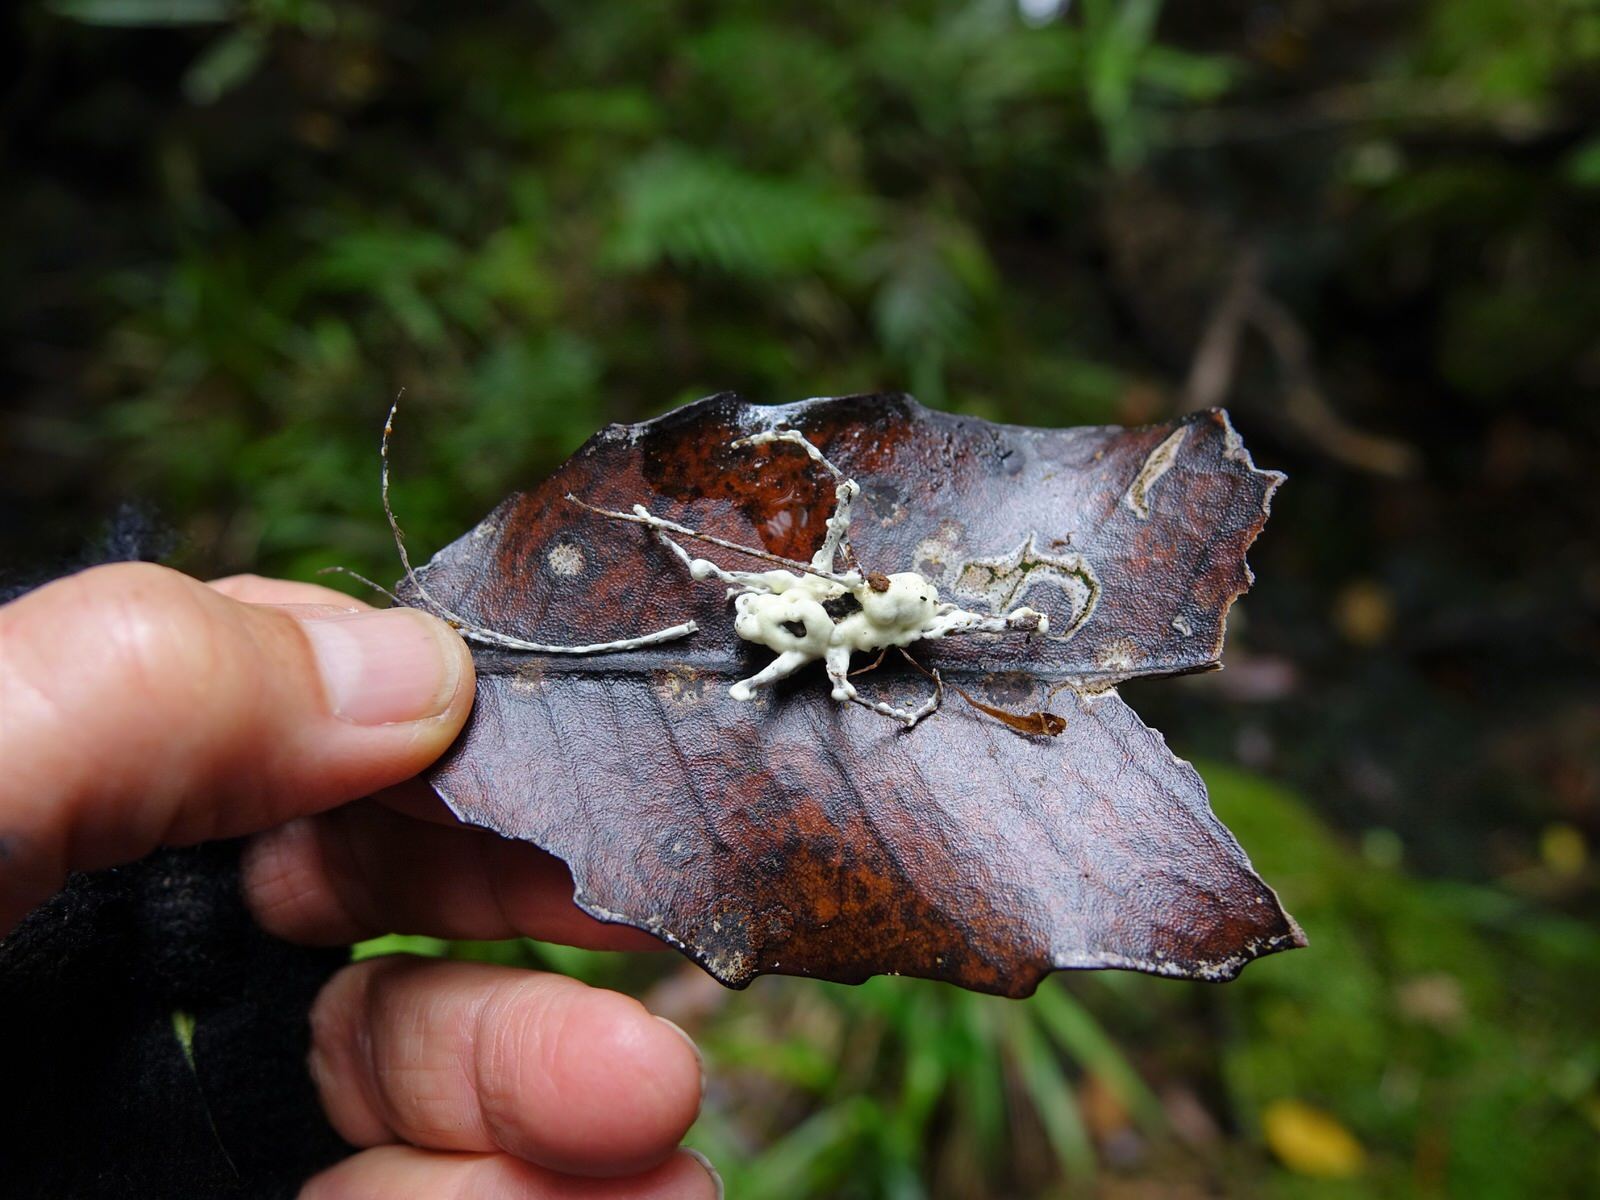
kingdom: Fungi
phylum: Ascomycota
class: Sordariomycetes
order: Hypocreales
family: Cordycipitaceae
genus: Beauveria
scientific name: Beauveria bassiana
